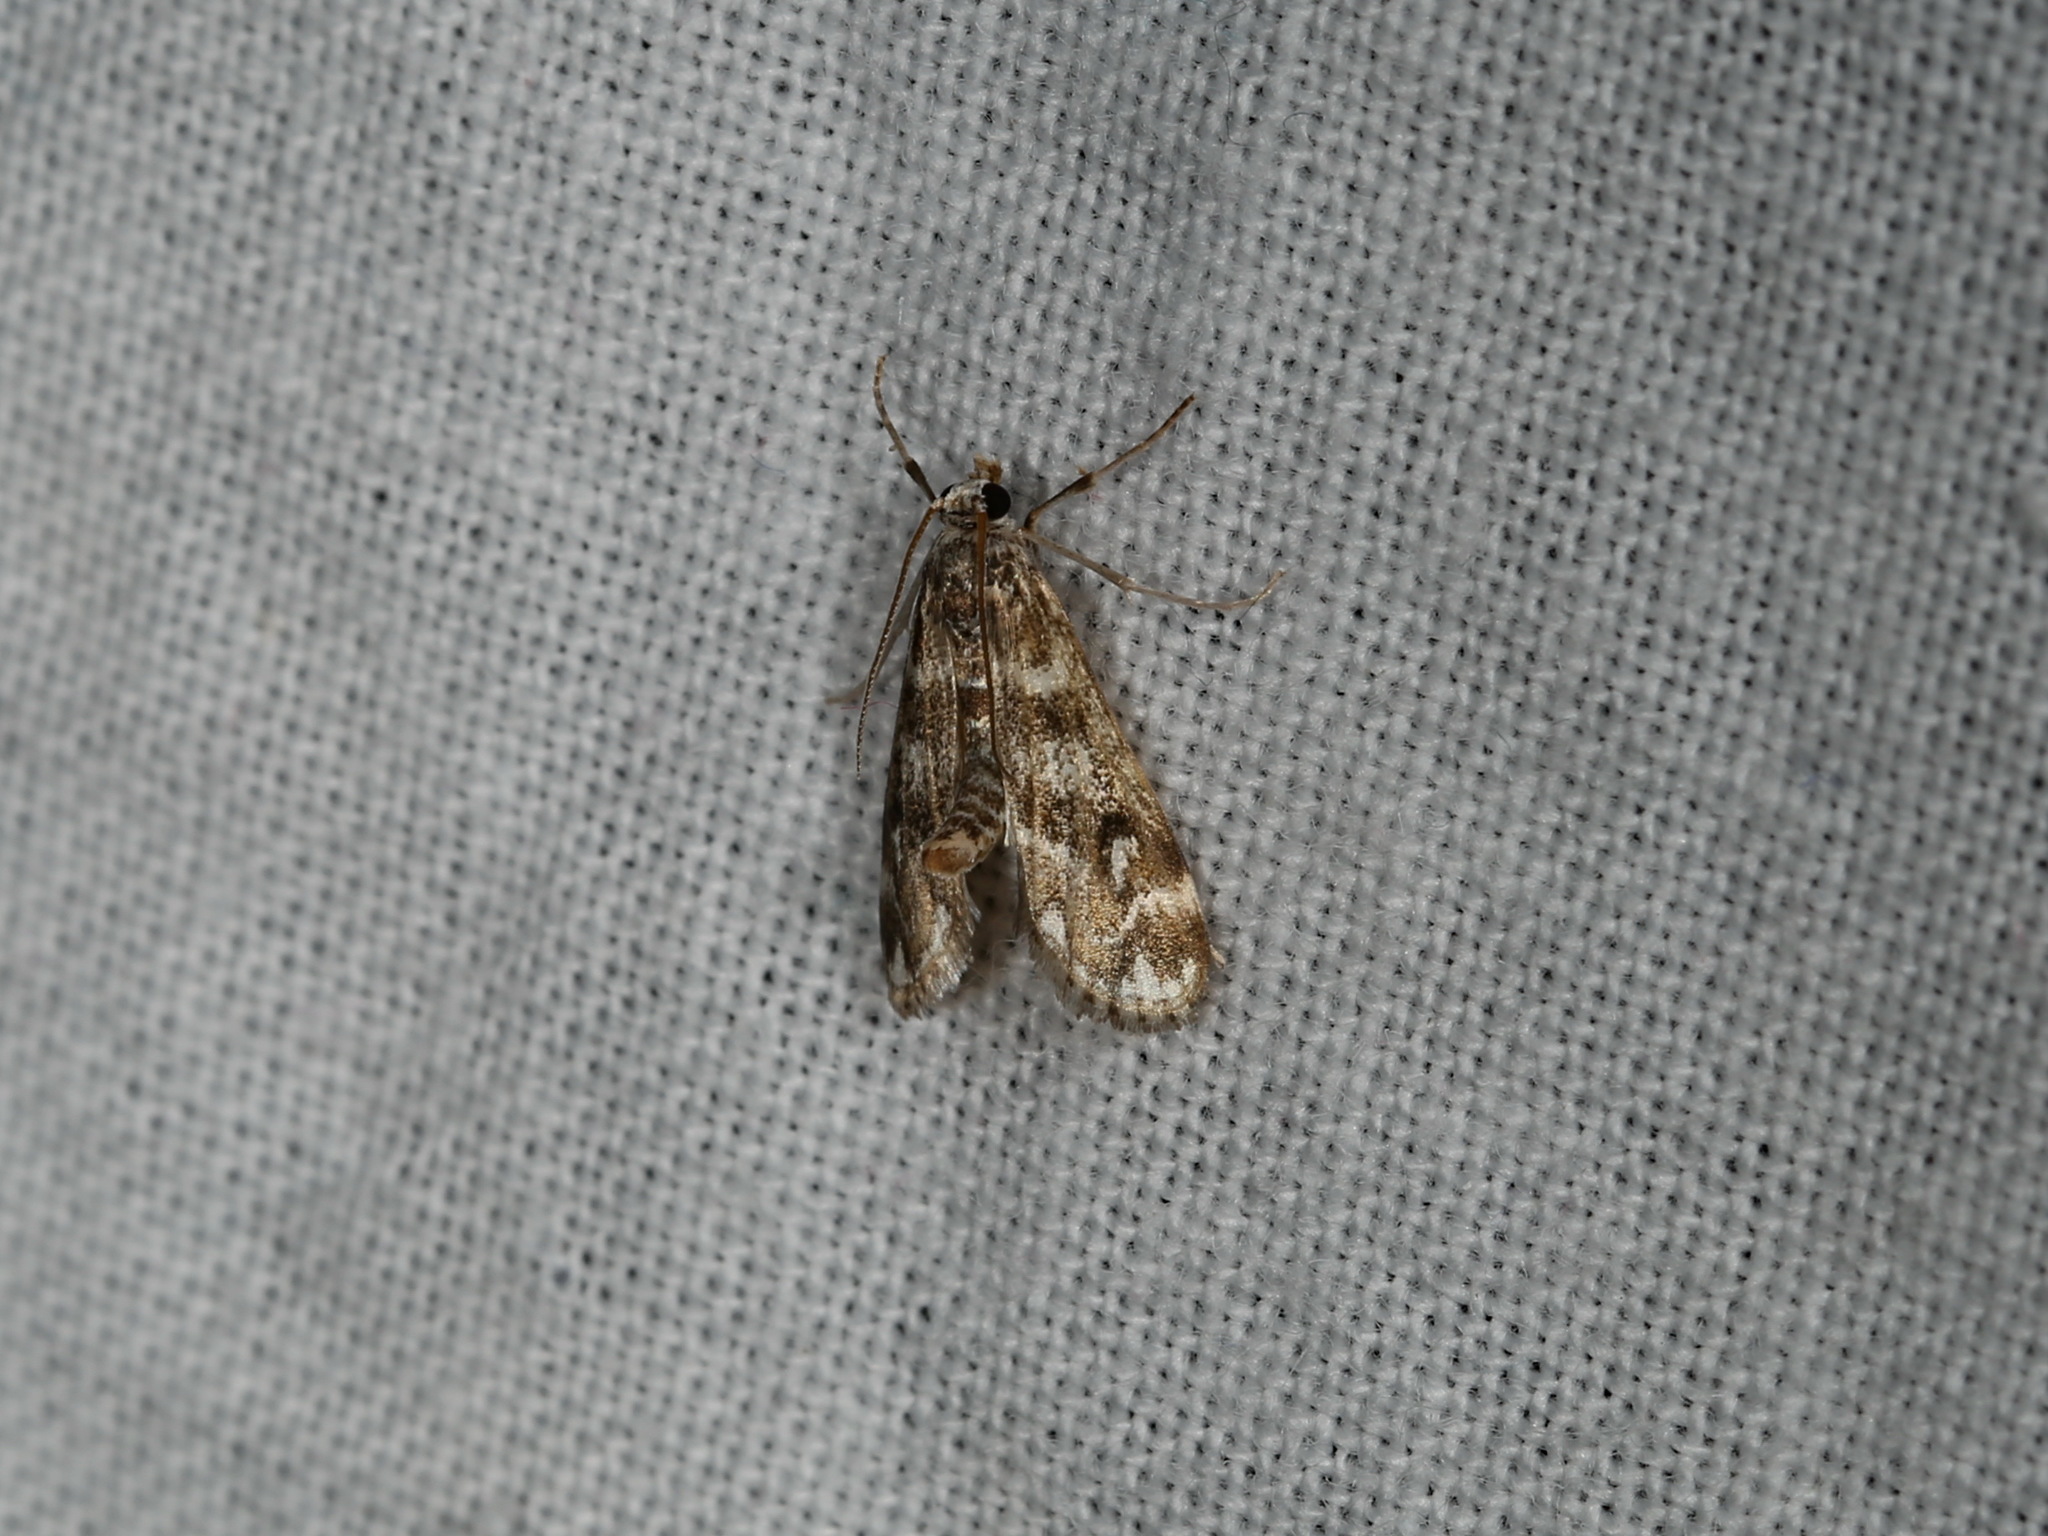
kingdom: Animalia
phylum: Arthropoda
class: Insecta
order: Lepidoptera
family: Crambidae
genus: Hygraula
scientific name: Hygraula nitens
